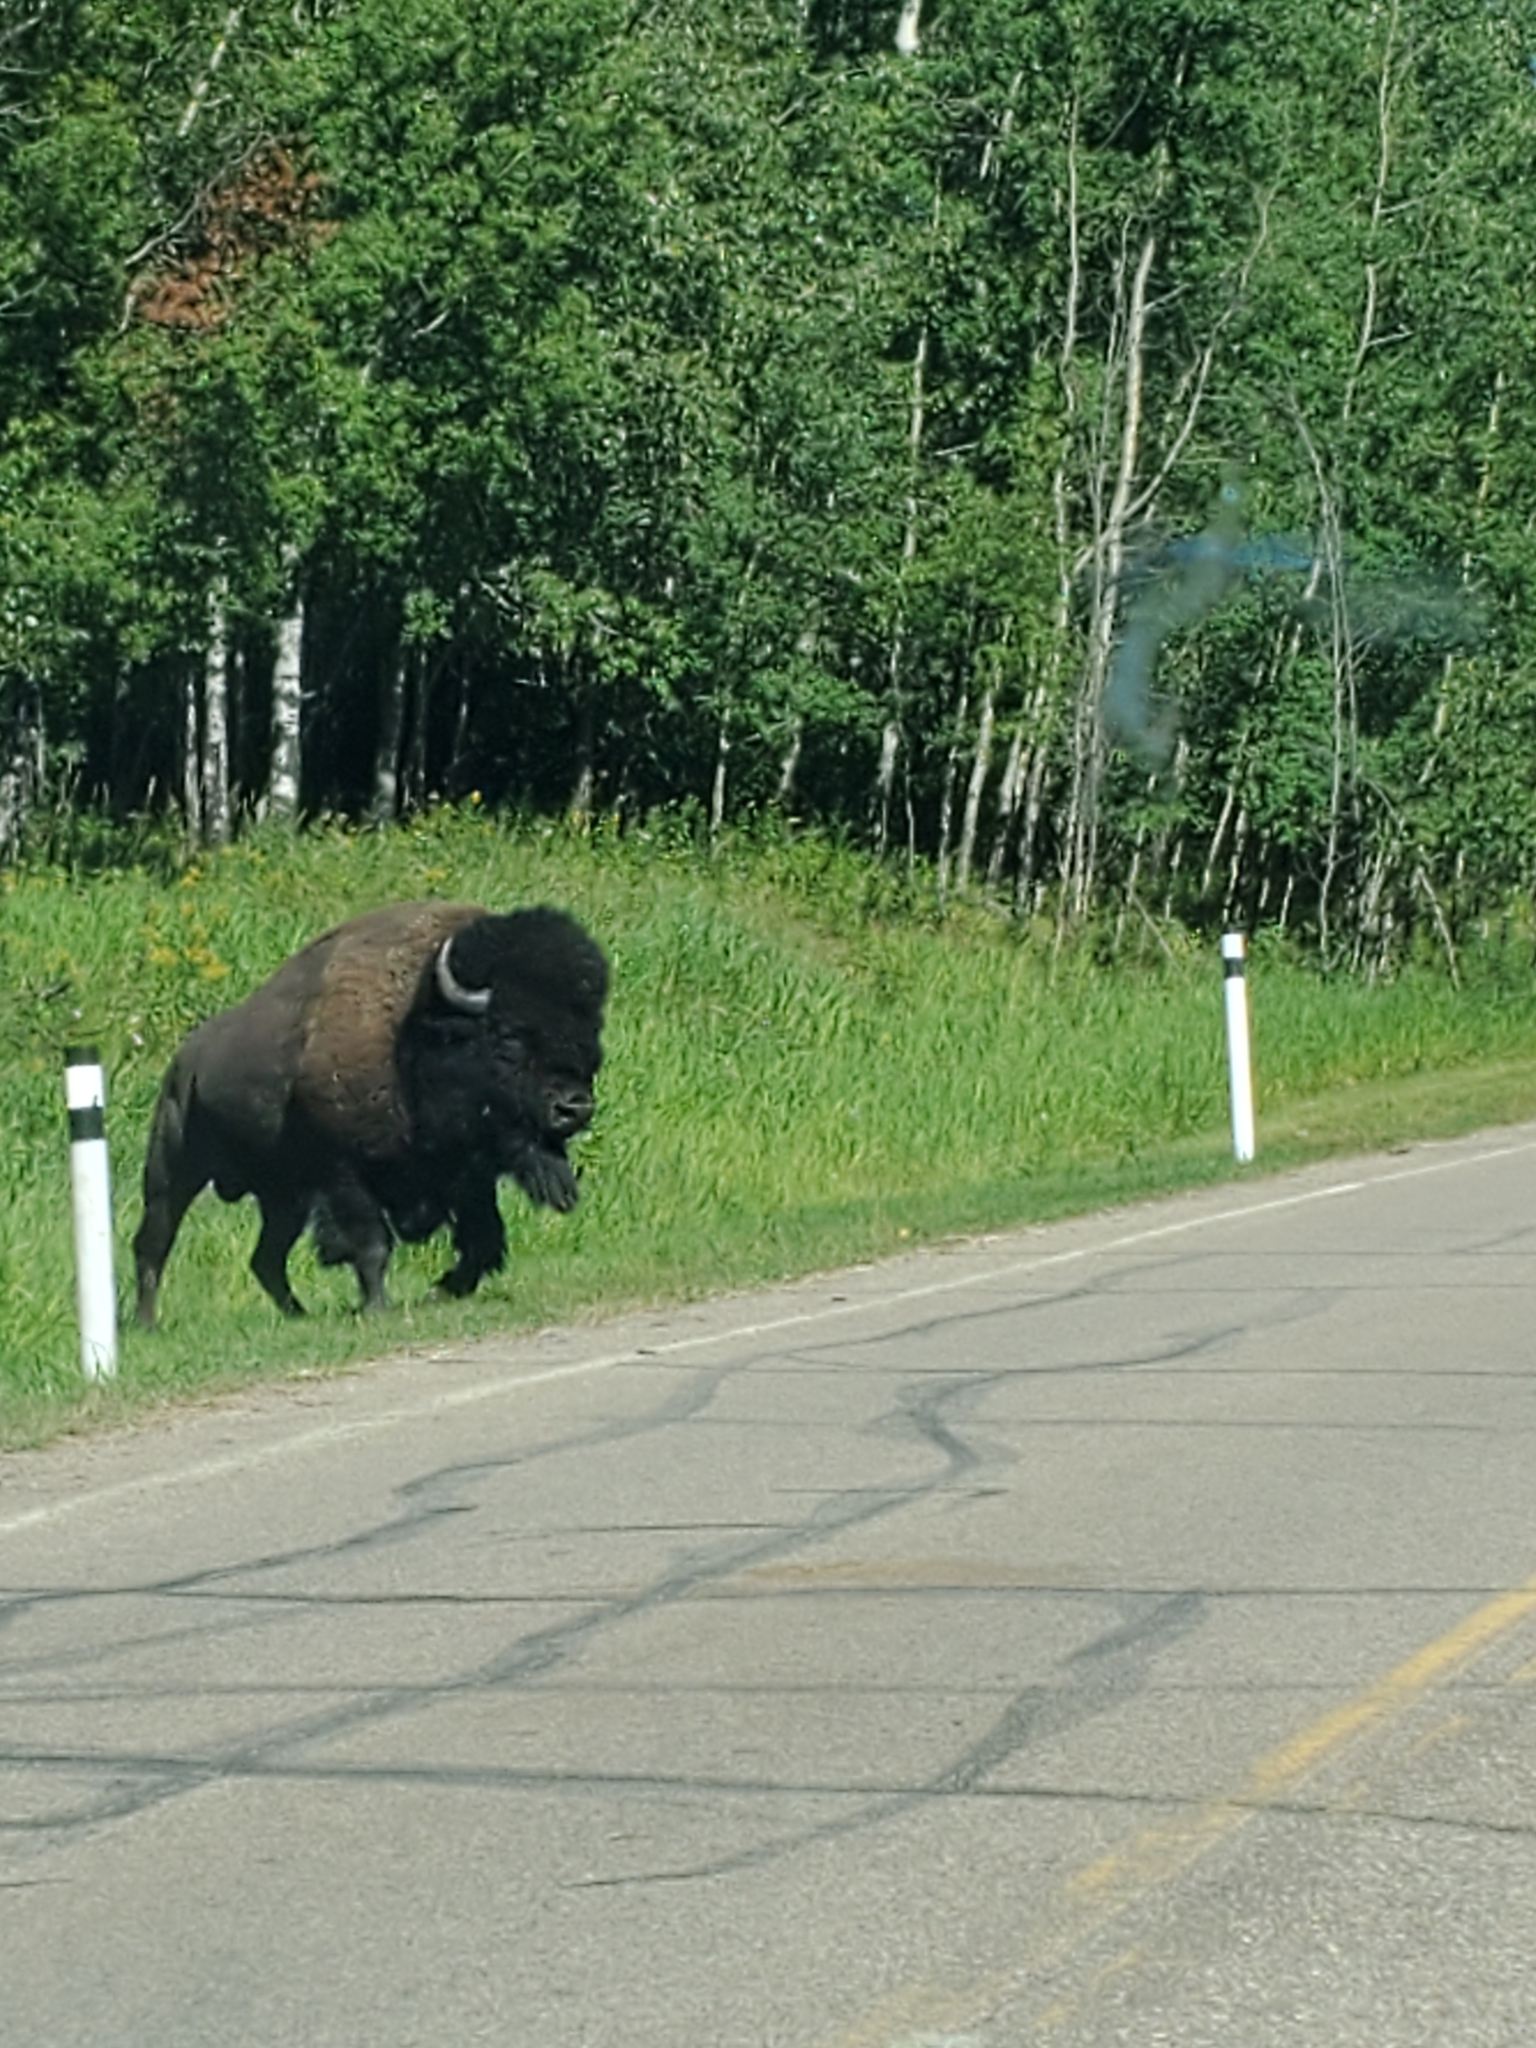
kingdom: Animalia
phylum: Chordata
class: Mammalia
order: Artiodactyla
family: Bovidae
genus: Bison
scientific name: Bison bison
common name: American bison
